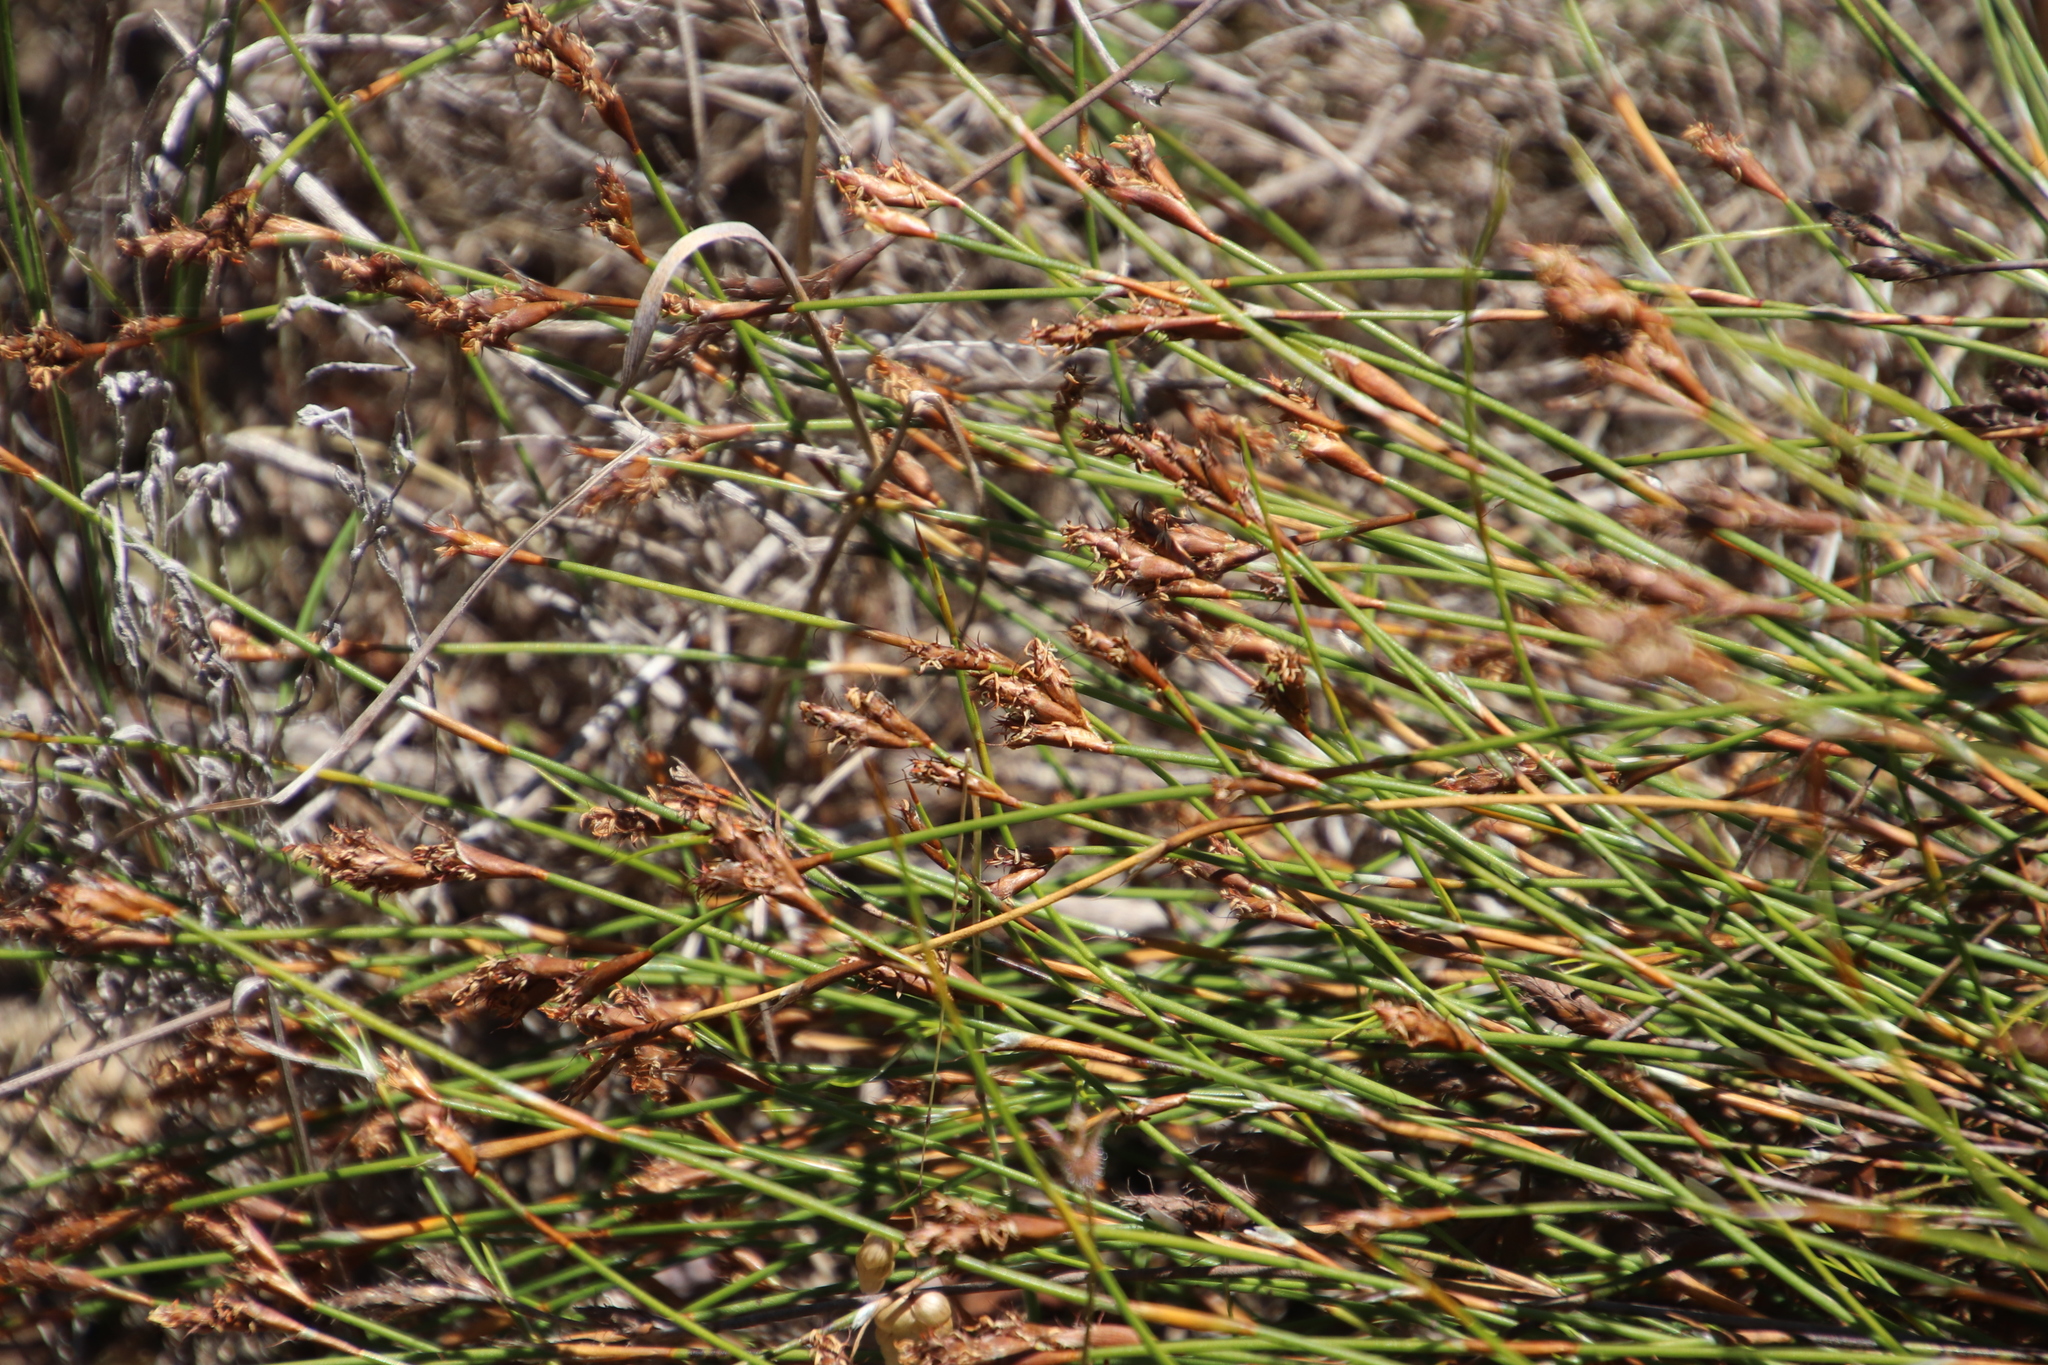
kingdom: Plantae
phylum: Tracheophyta
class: Liliopsida
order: Poales
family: Restionaceae
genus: Restio
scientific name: Restio capensis
